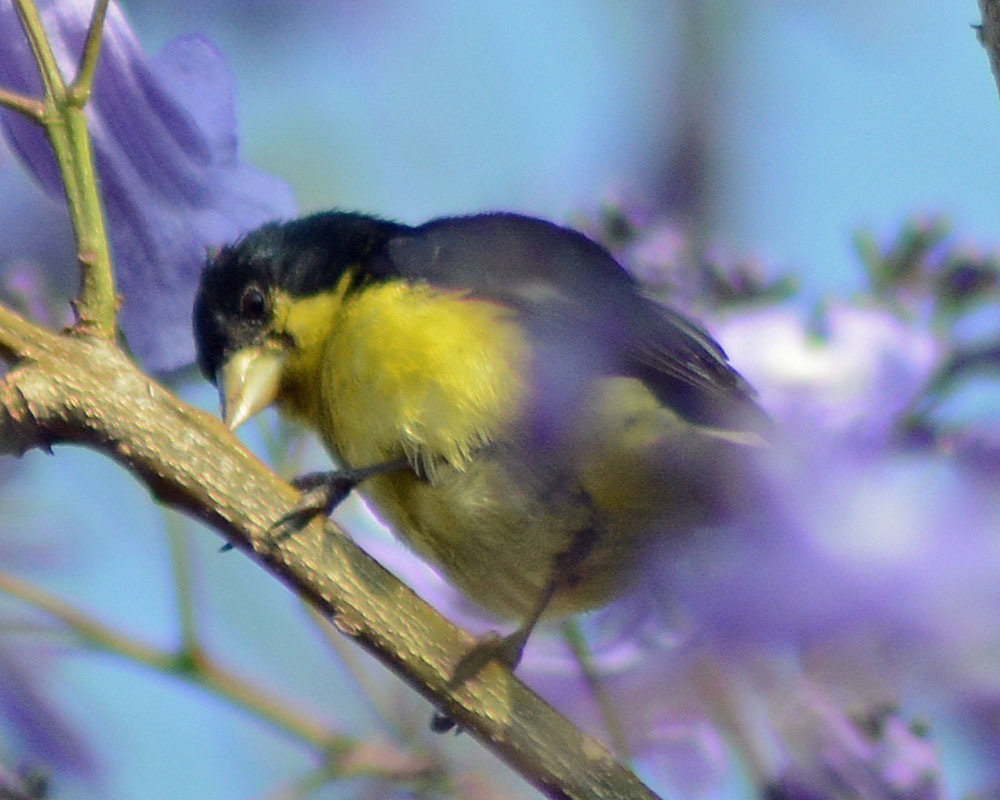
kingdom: Animalia
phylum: Chordata
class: Aves
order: Passeriformes
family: Fringillidae
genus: Spinus
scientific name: Spinus psaltria
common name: Lesser goldfinch
